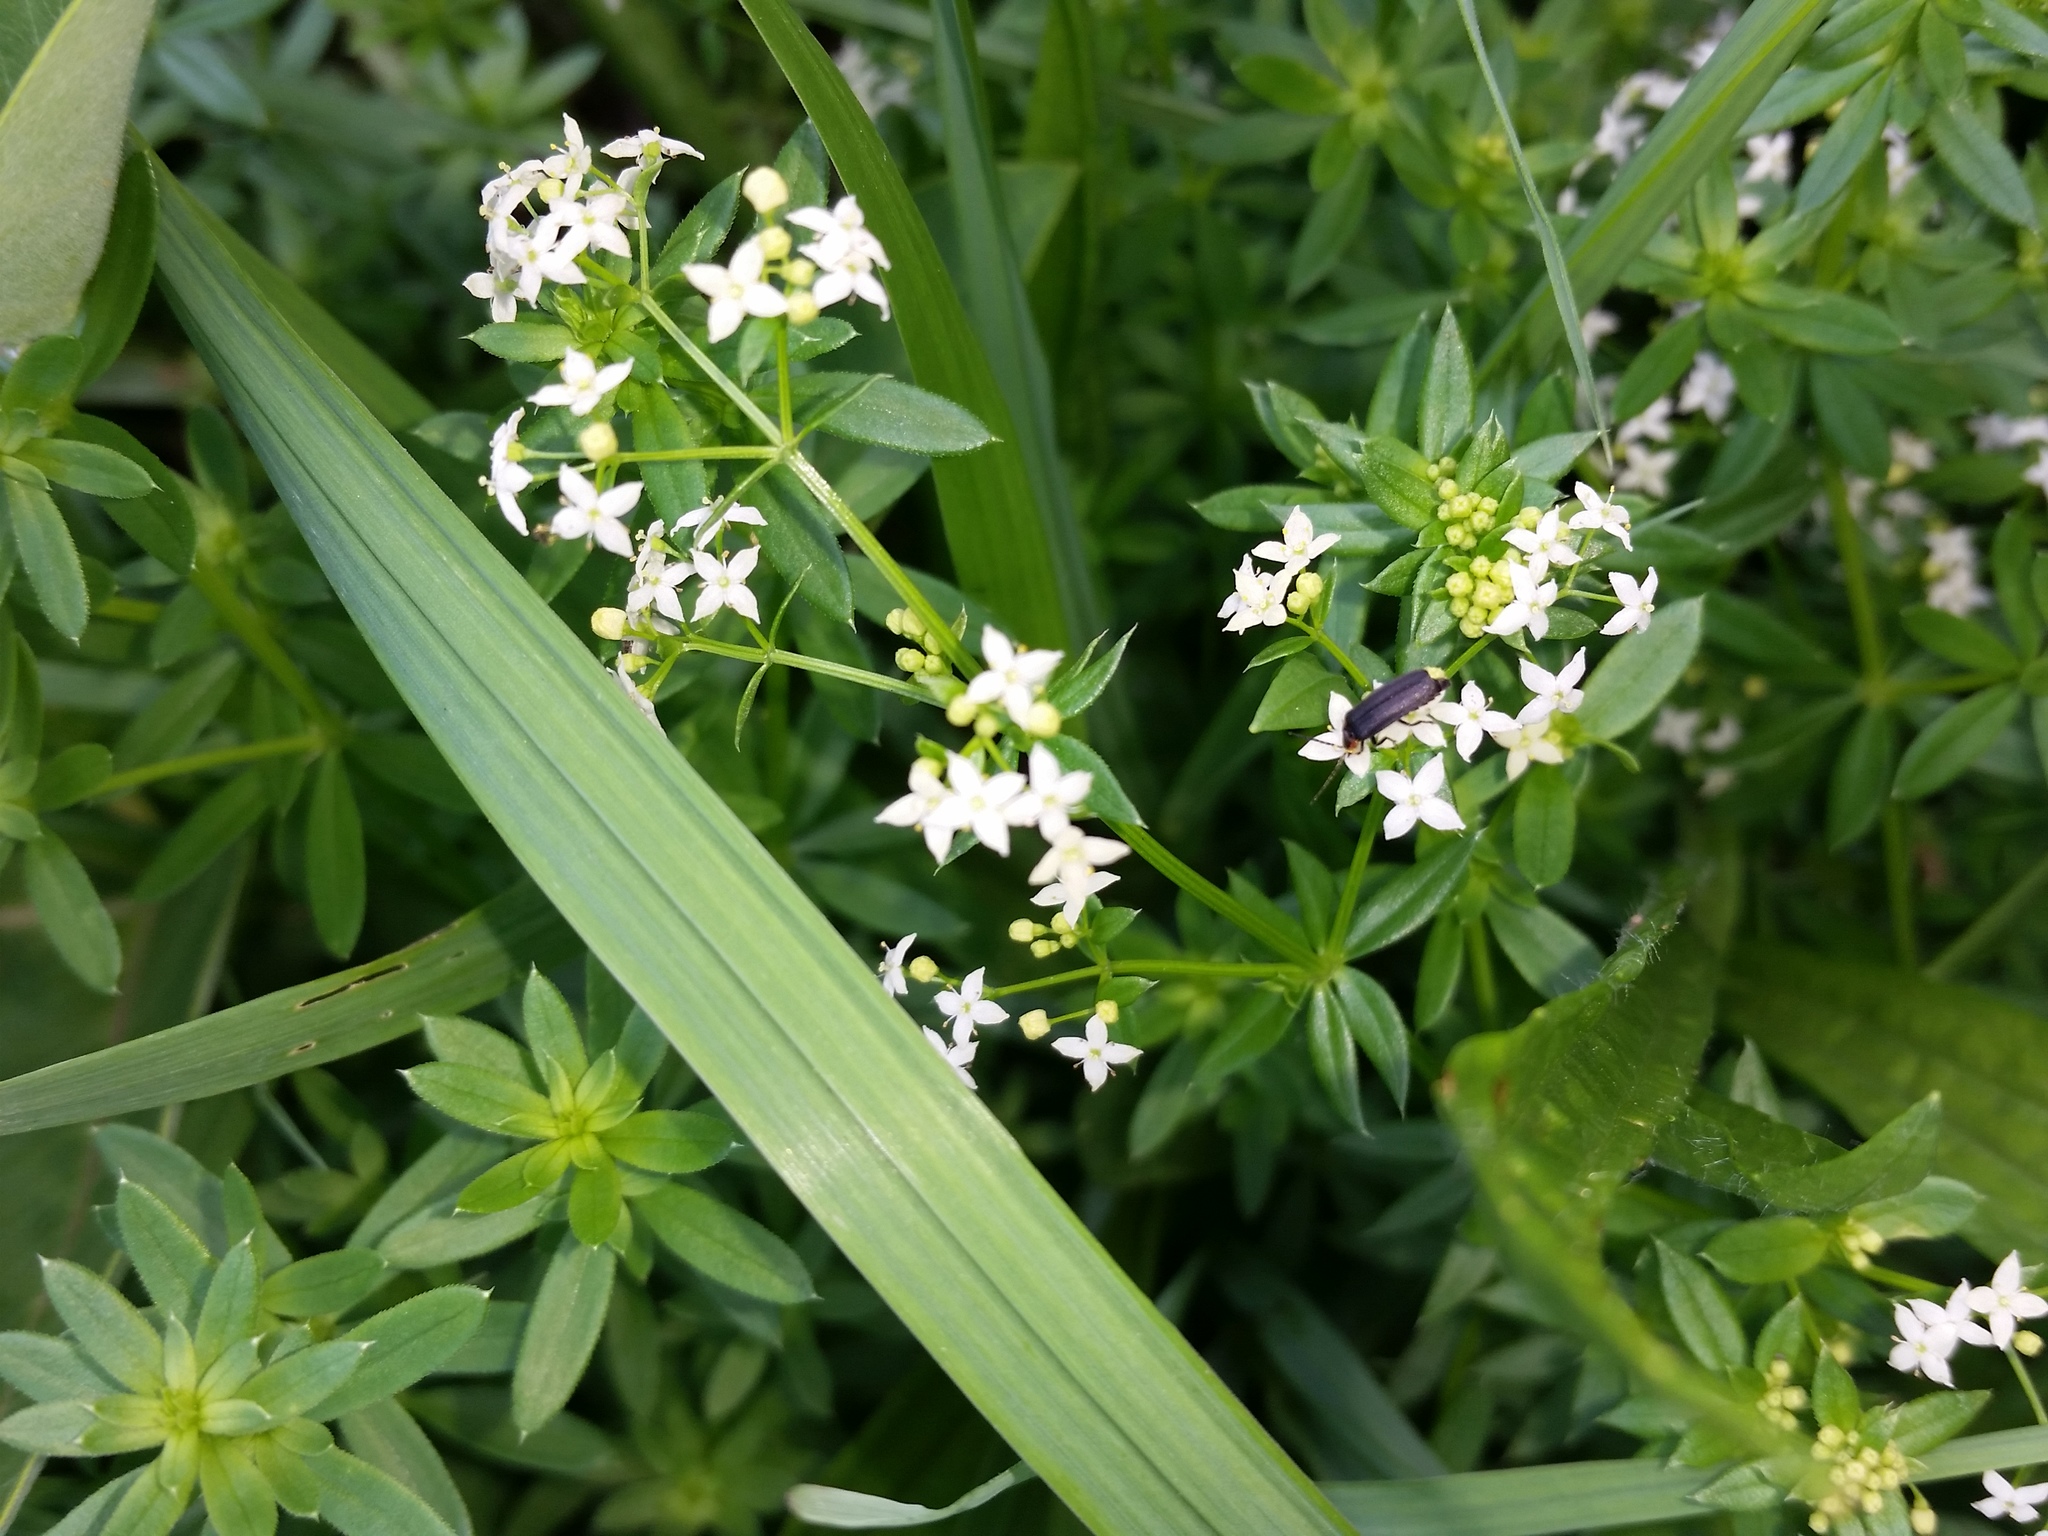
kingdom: Plantae
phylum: Tracheophyta
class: Magnoliopsida
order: Gentianales
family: Rubiaceae
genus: Galium
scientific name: Galium album
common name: White bedstraw
